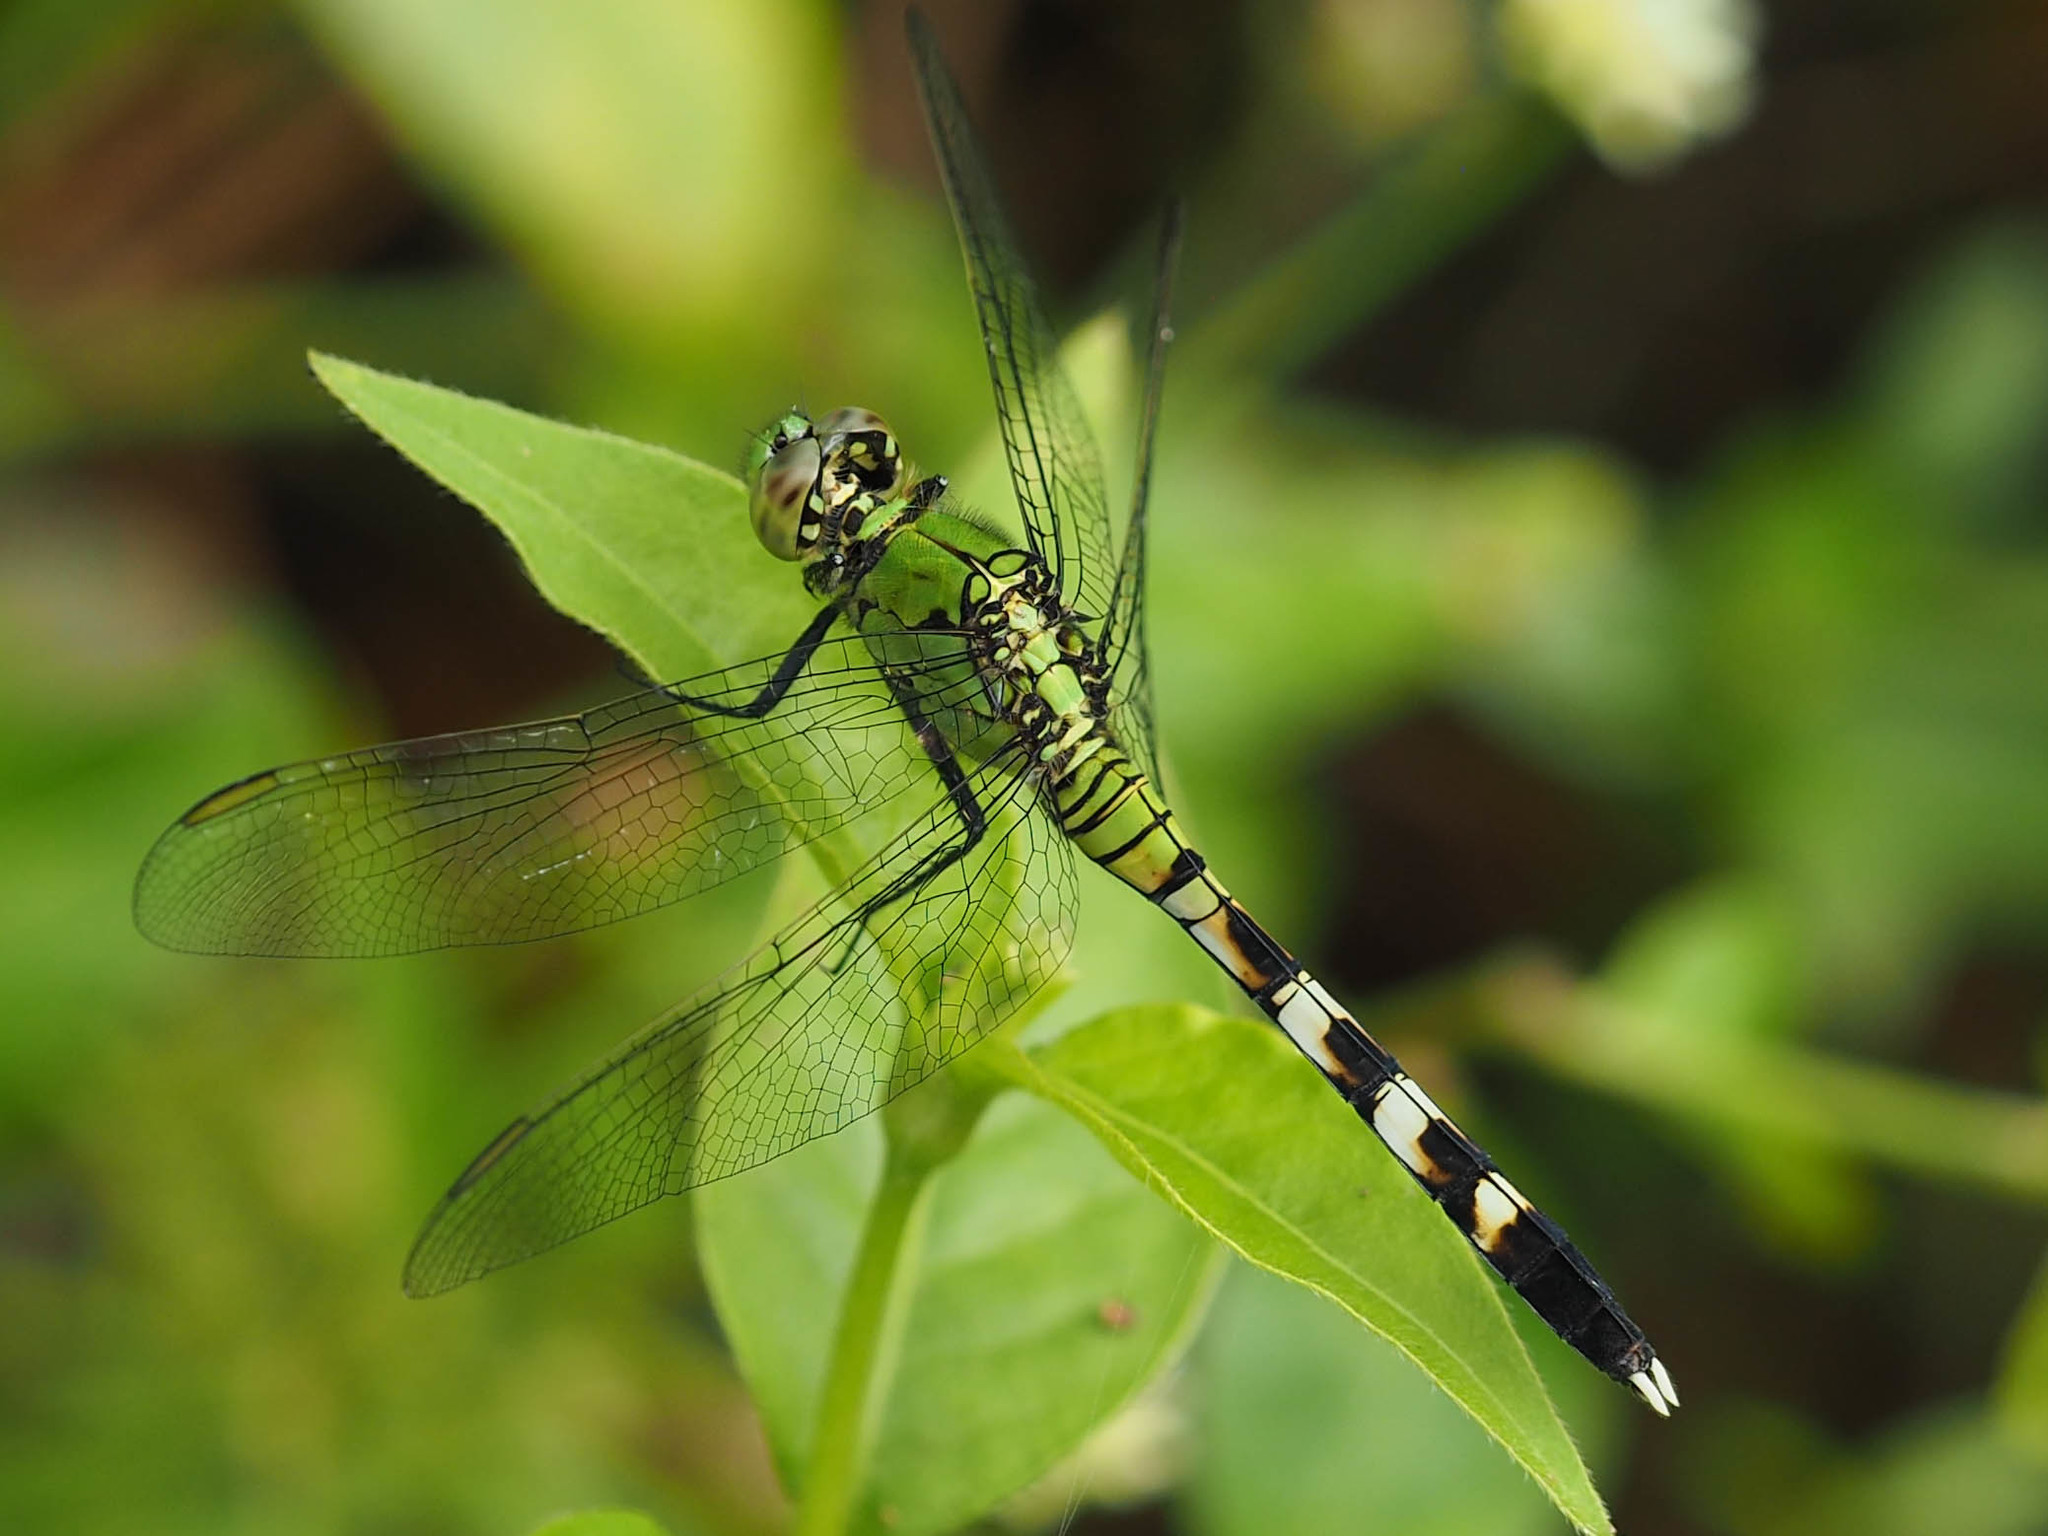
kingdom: Animalia
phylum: Arthropoda
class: Insecta
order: Odonata
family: Libellulidae
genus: Erythemis
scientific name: Erythemis simplicicollis
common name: Eastern pondhawk
